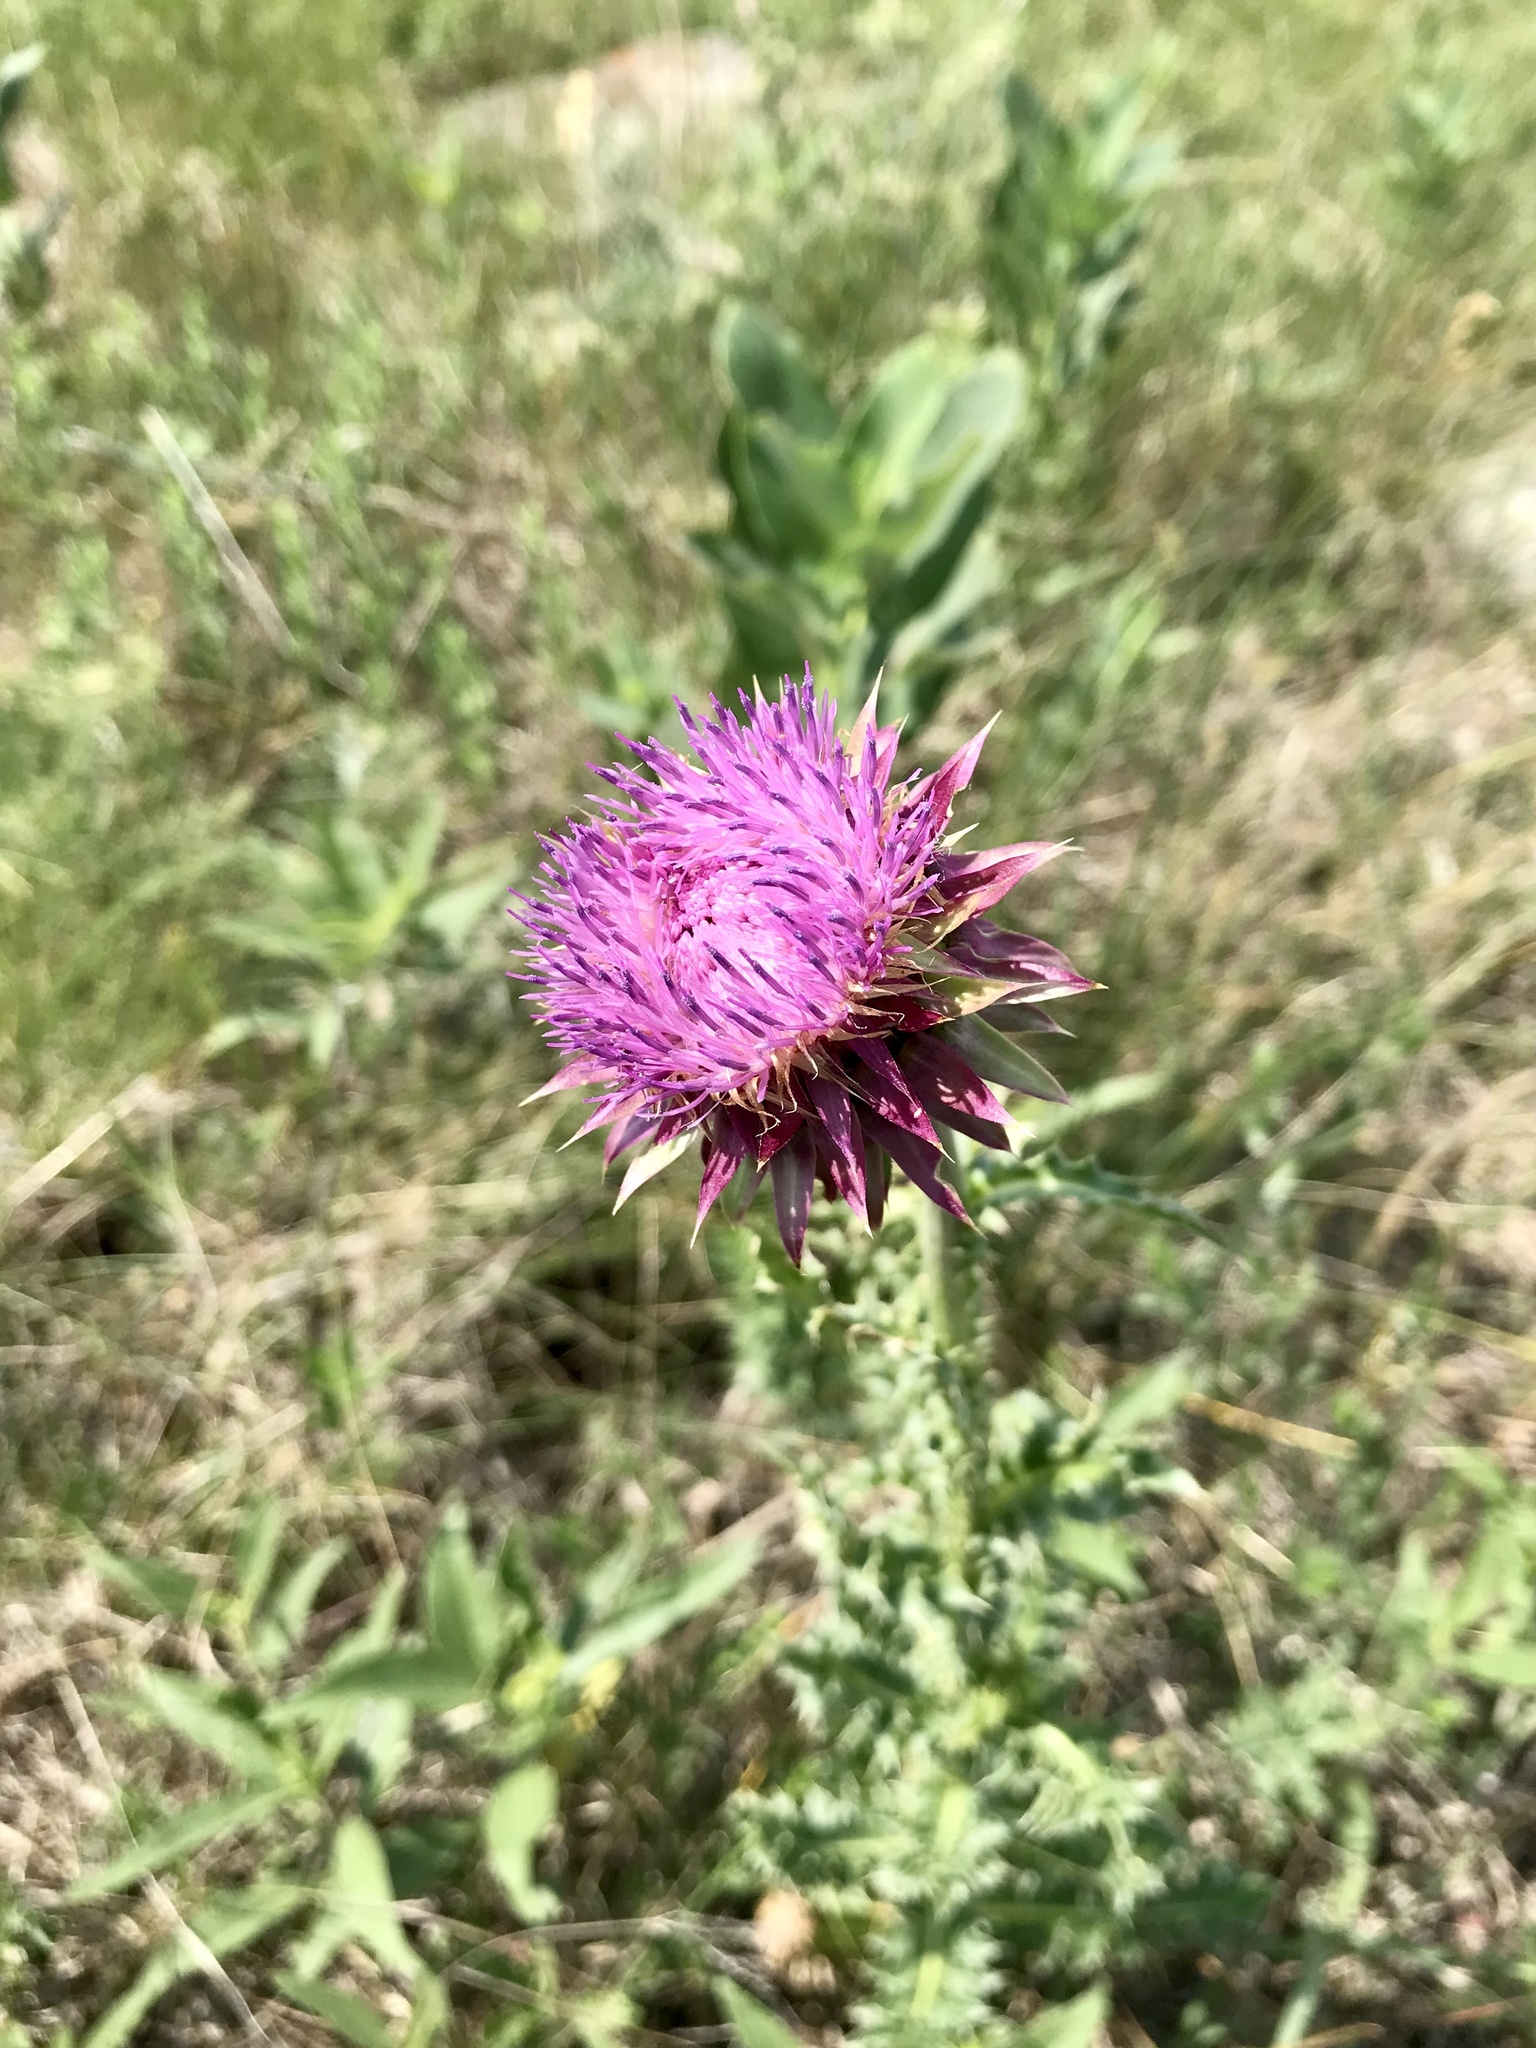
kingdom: Plantae
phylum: Tracheophyta
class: Magnoliopsida
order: Asterales
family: Asteraceae
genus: Carduus
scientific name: Carduus nutans
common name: Musk thistle
